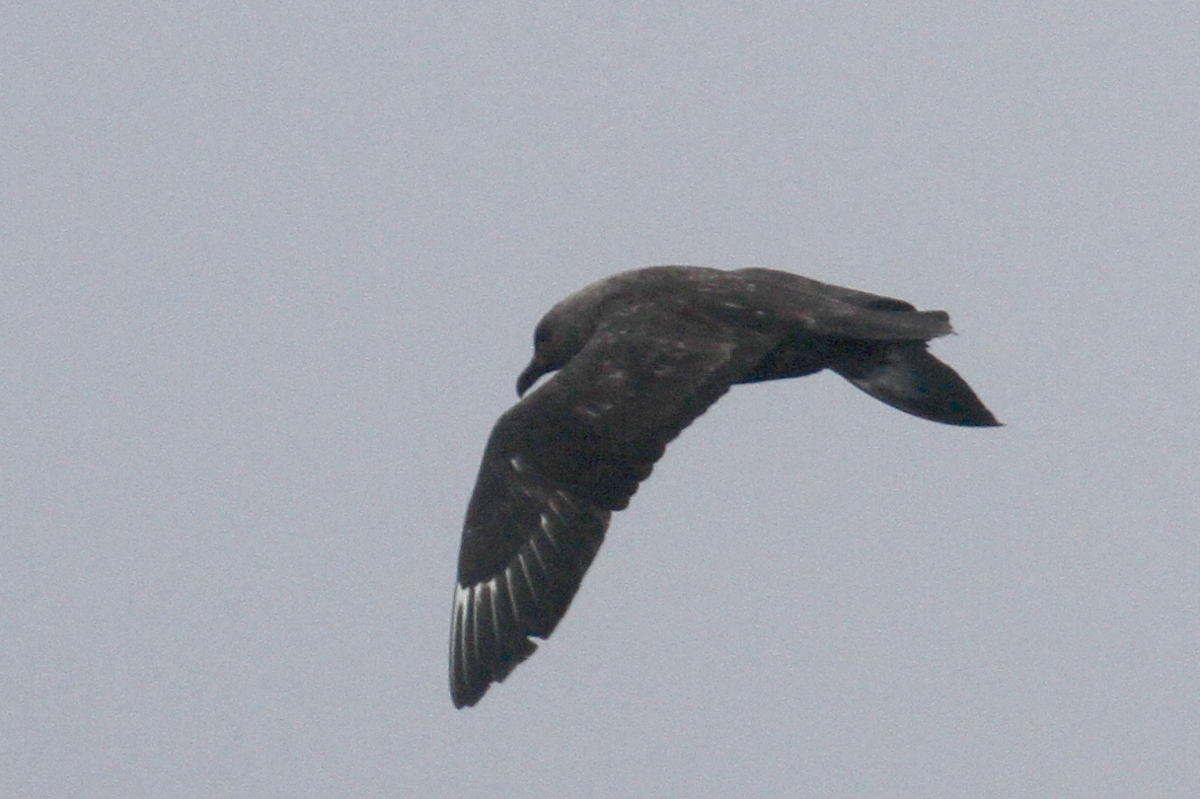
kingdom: Animalia
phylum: Chordata
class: Aves
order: Charadriiformes
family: Stercorariidae
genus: Stercorarius
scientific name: Stercorarius maccormicki
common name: South polar skua
